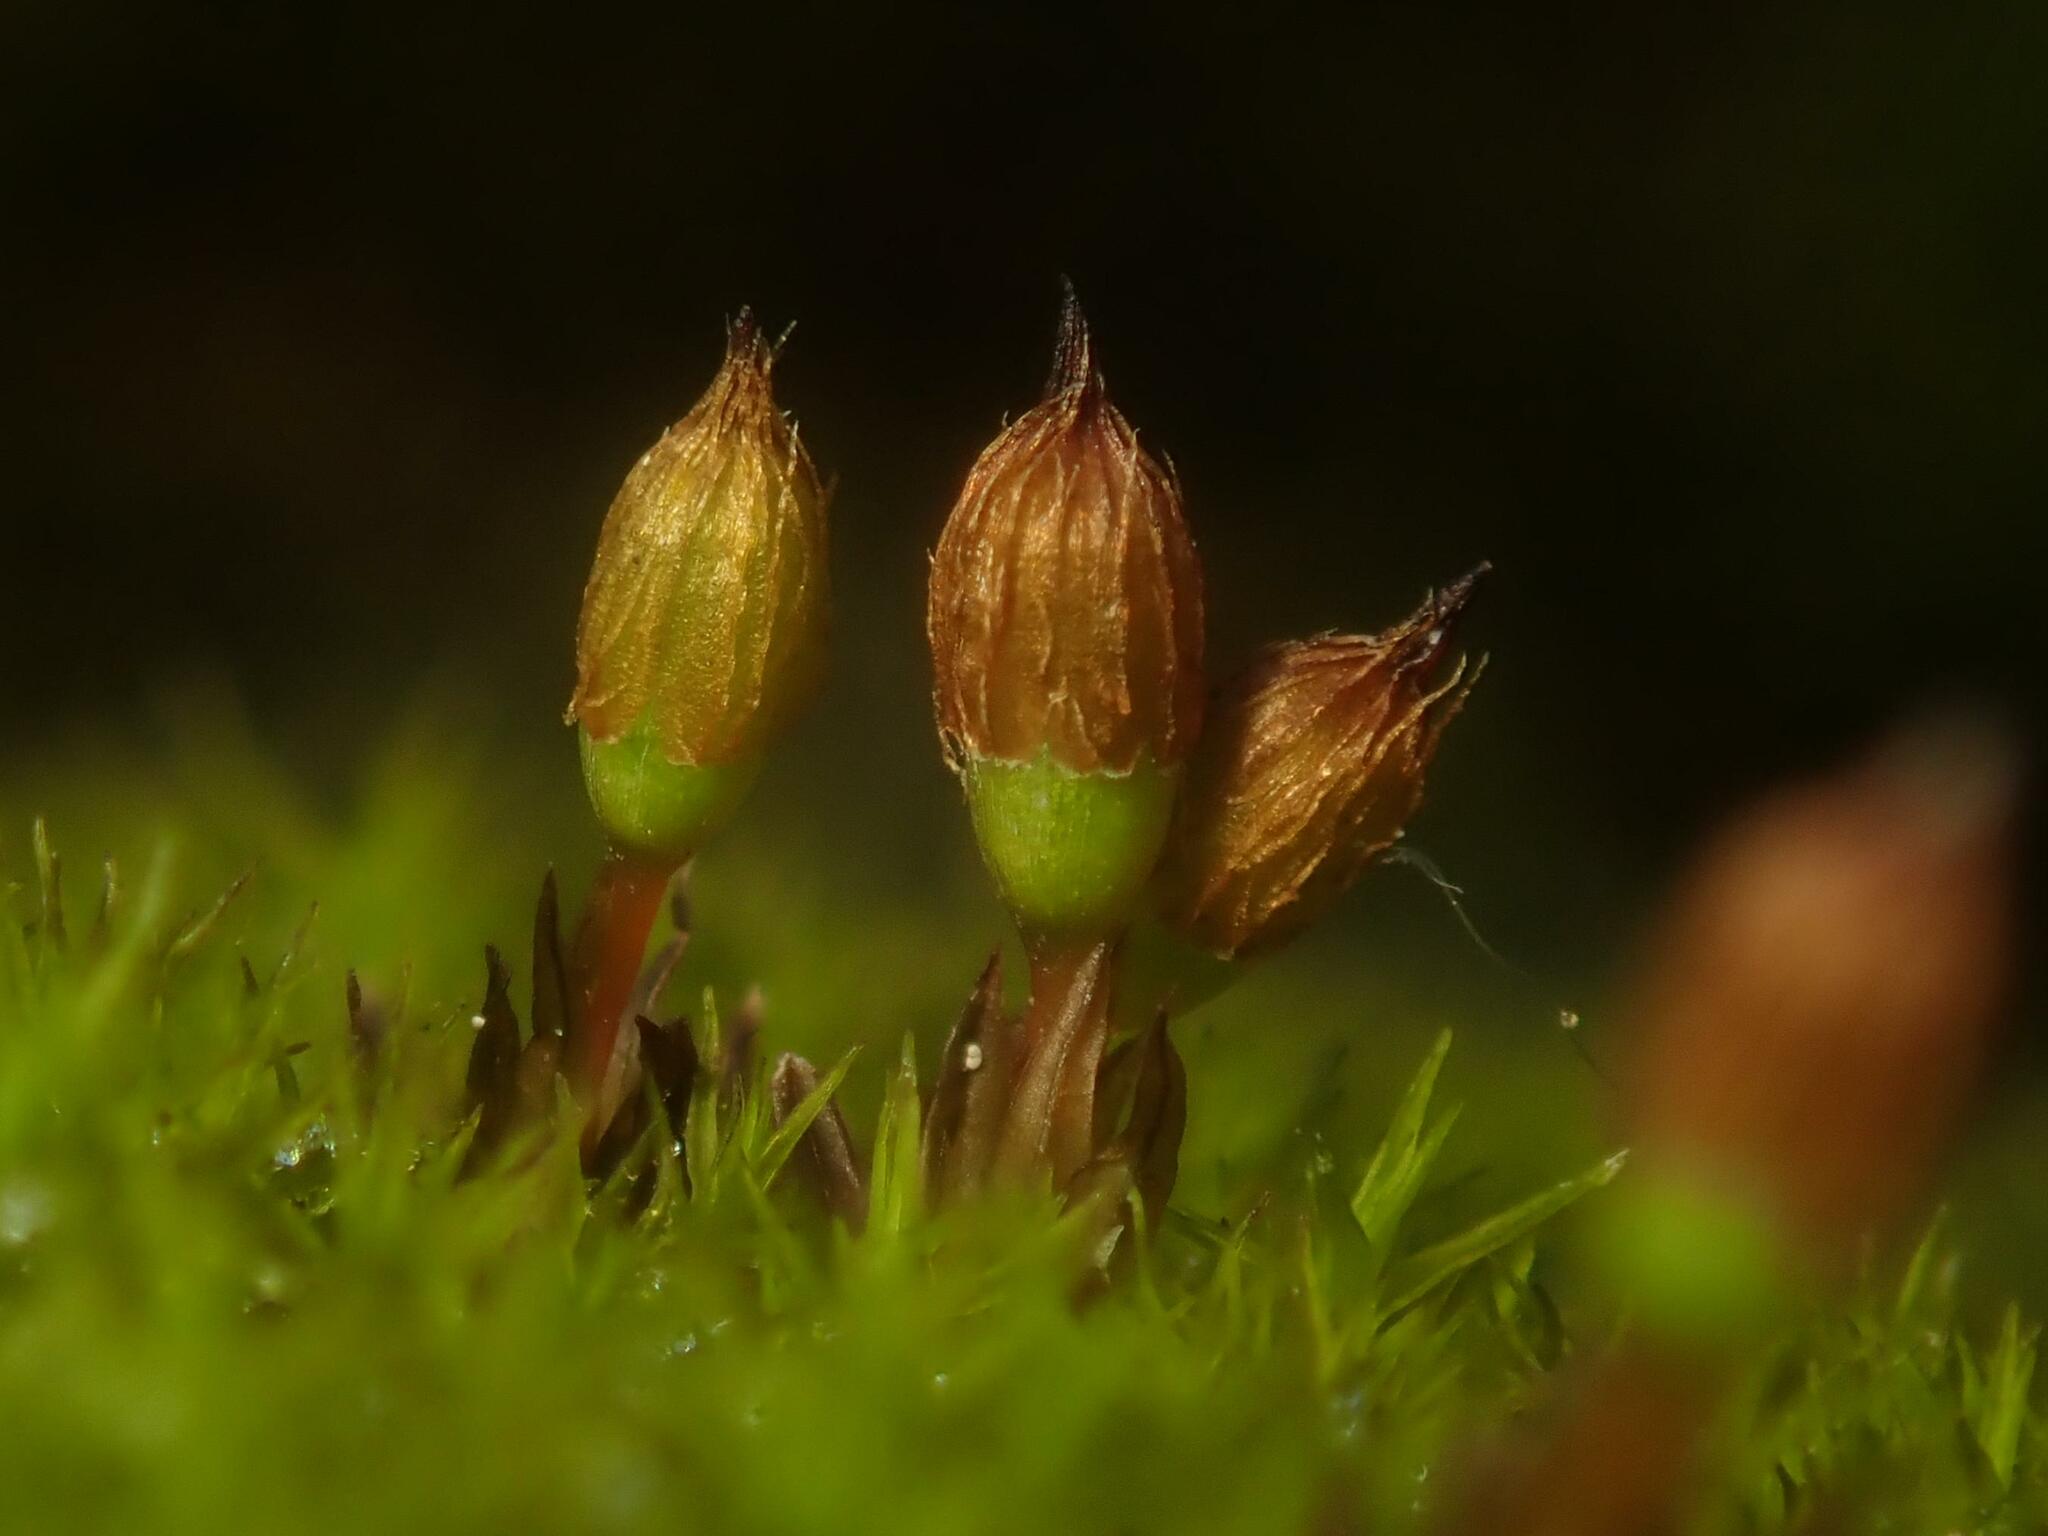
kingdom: Plantae
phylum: Bryophyta
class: Bryopsida
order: Orthotrichales
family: Orthotrichaceae
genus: Orthotrichum
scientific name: Orthotrichum anomalum
